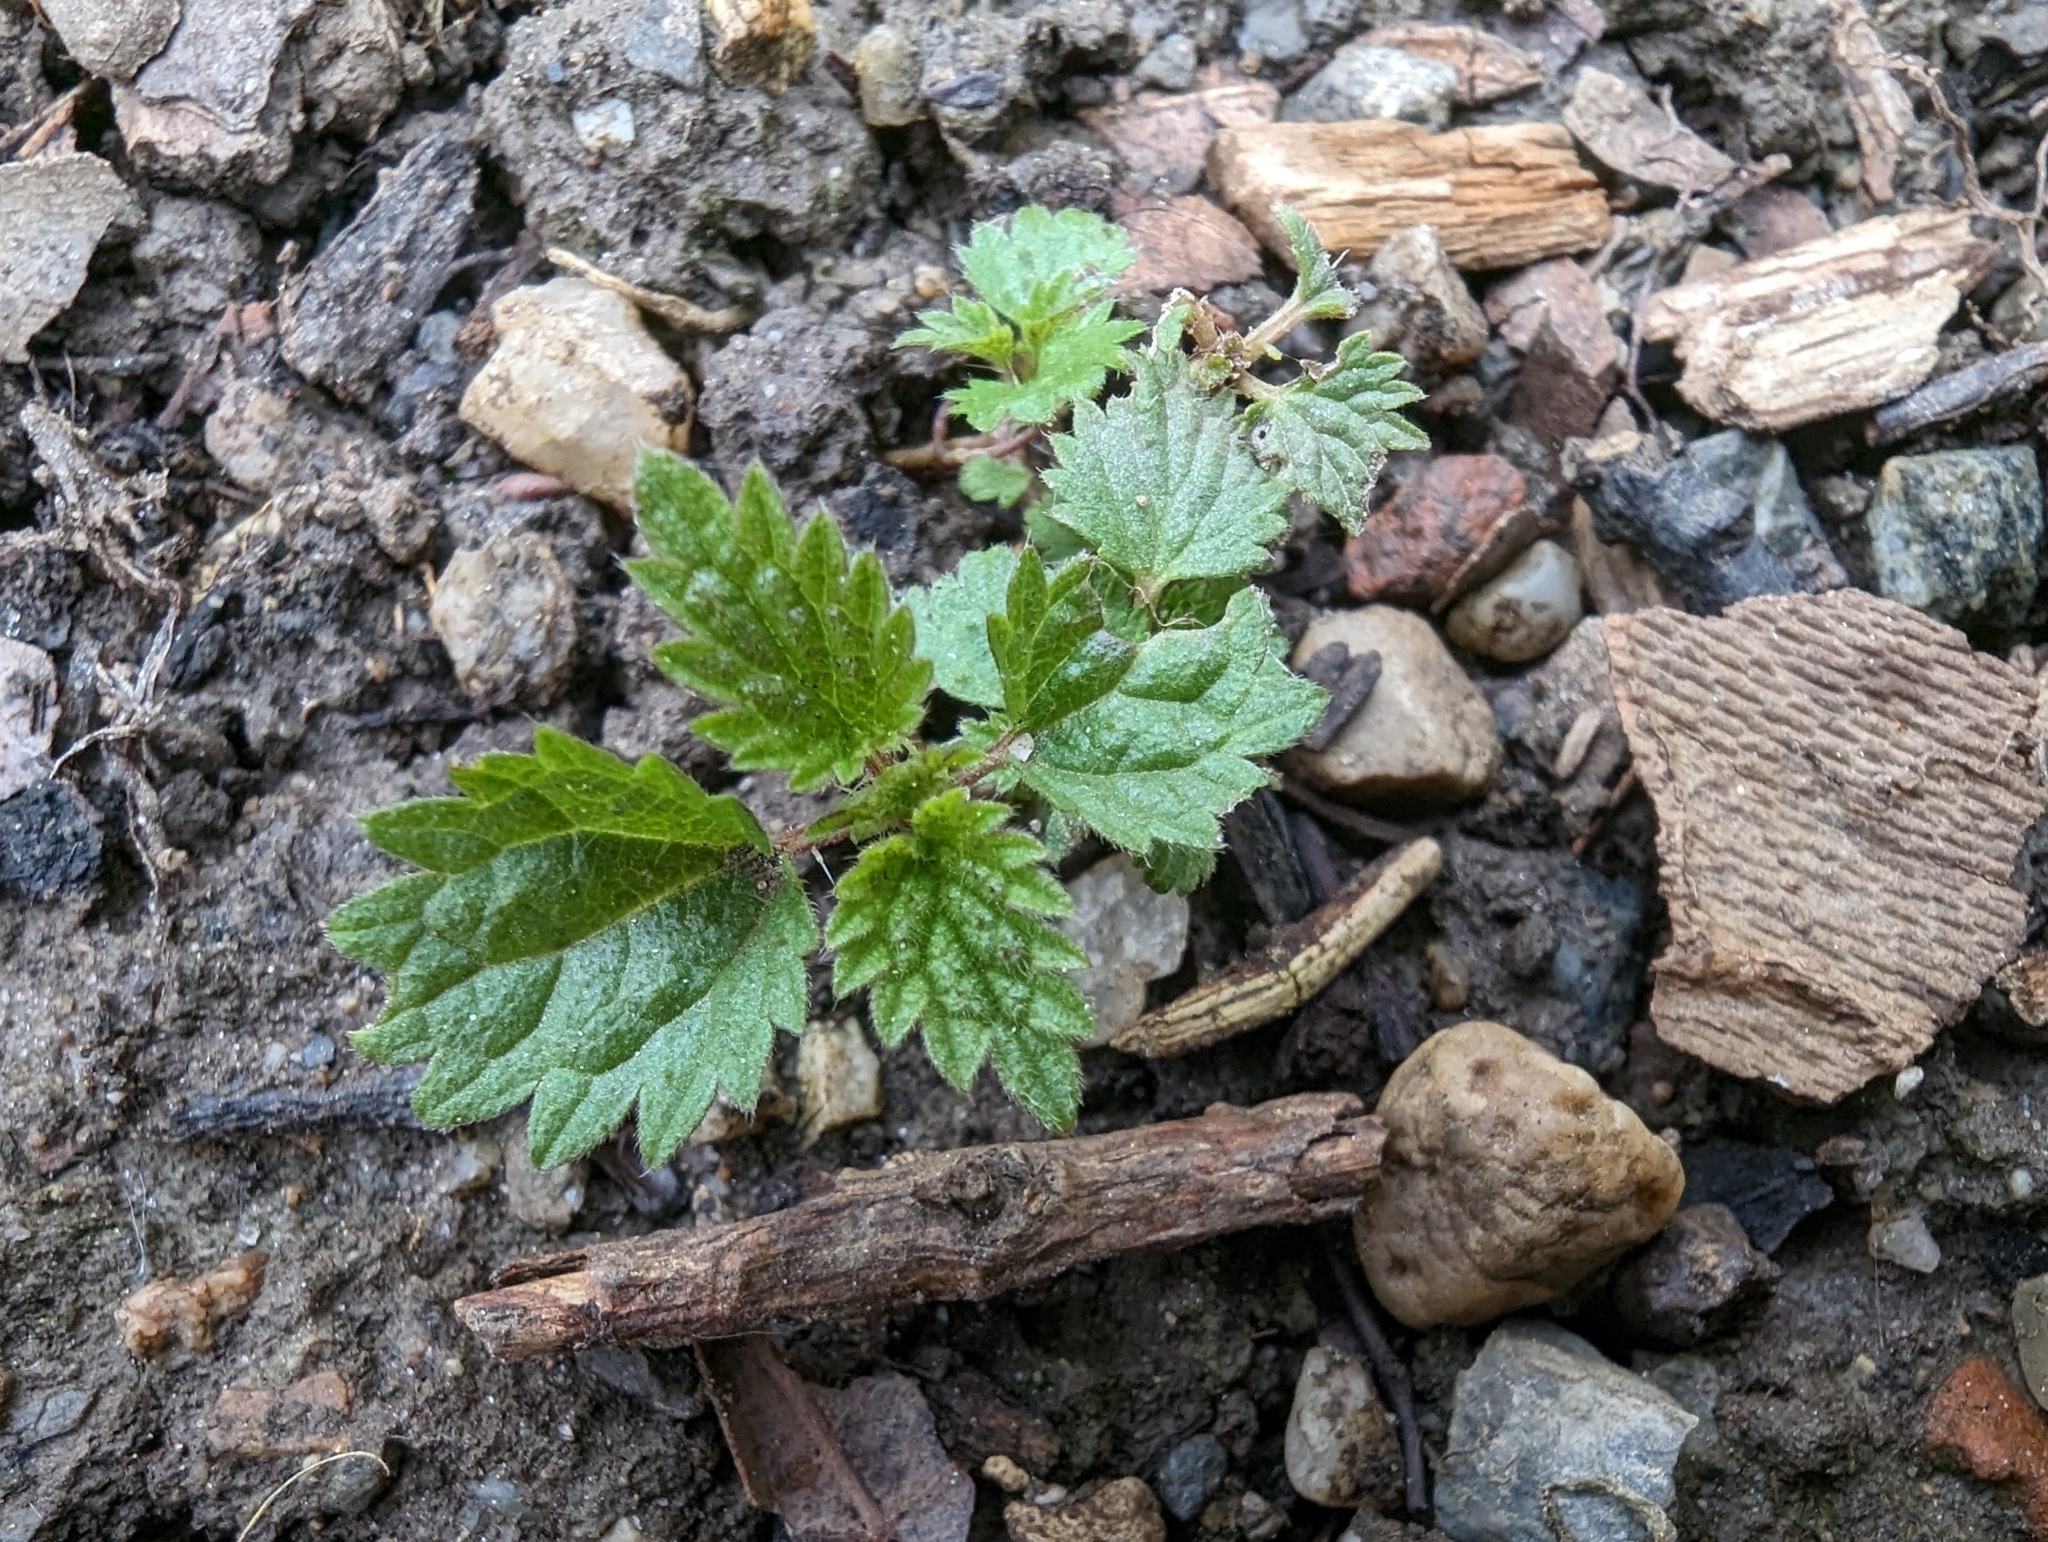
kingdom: Plantae
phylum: Tracheophyta
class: Magnoliopsida
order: Rosales
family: Urticaceae
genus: Urtica
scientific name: Urtica dioica
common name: Common nettle
